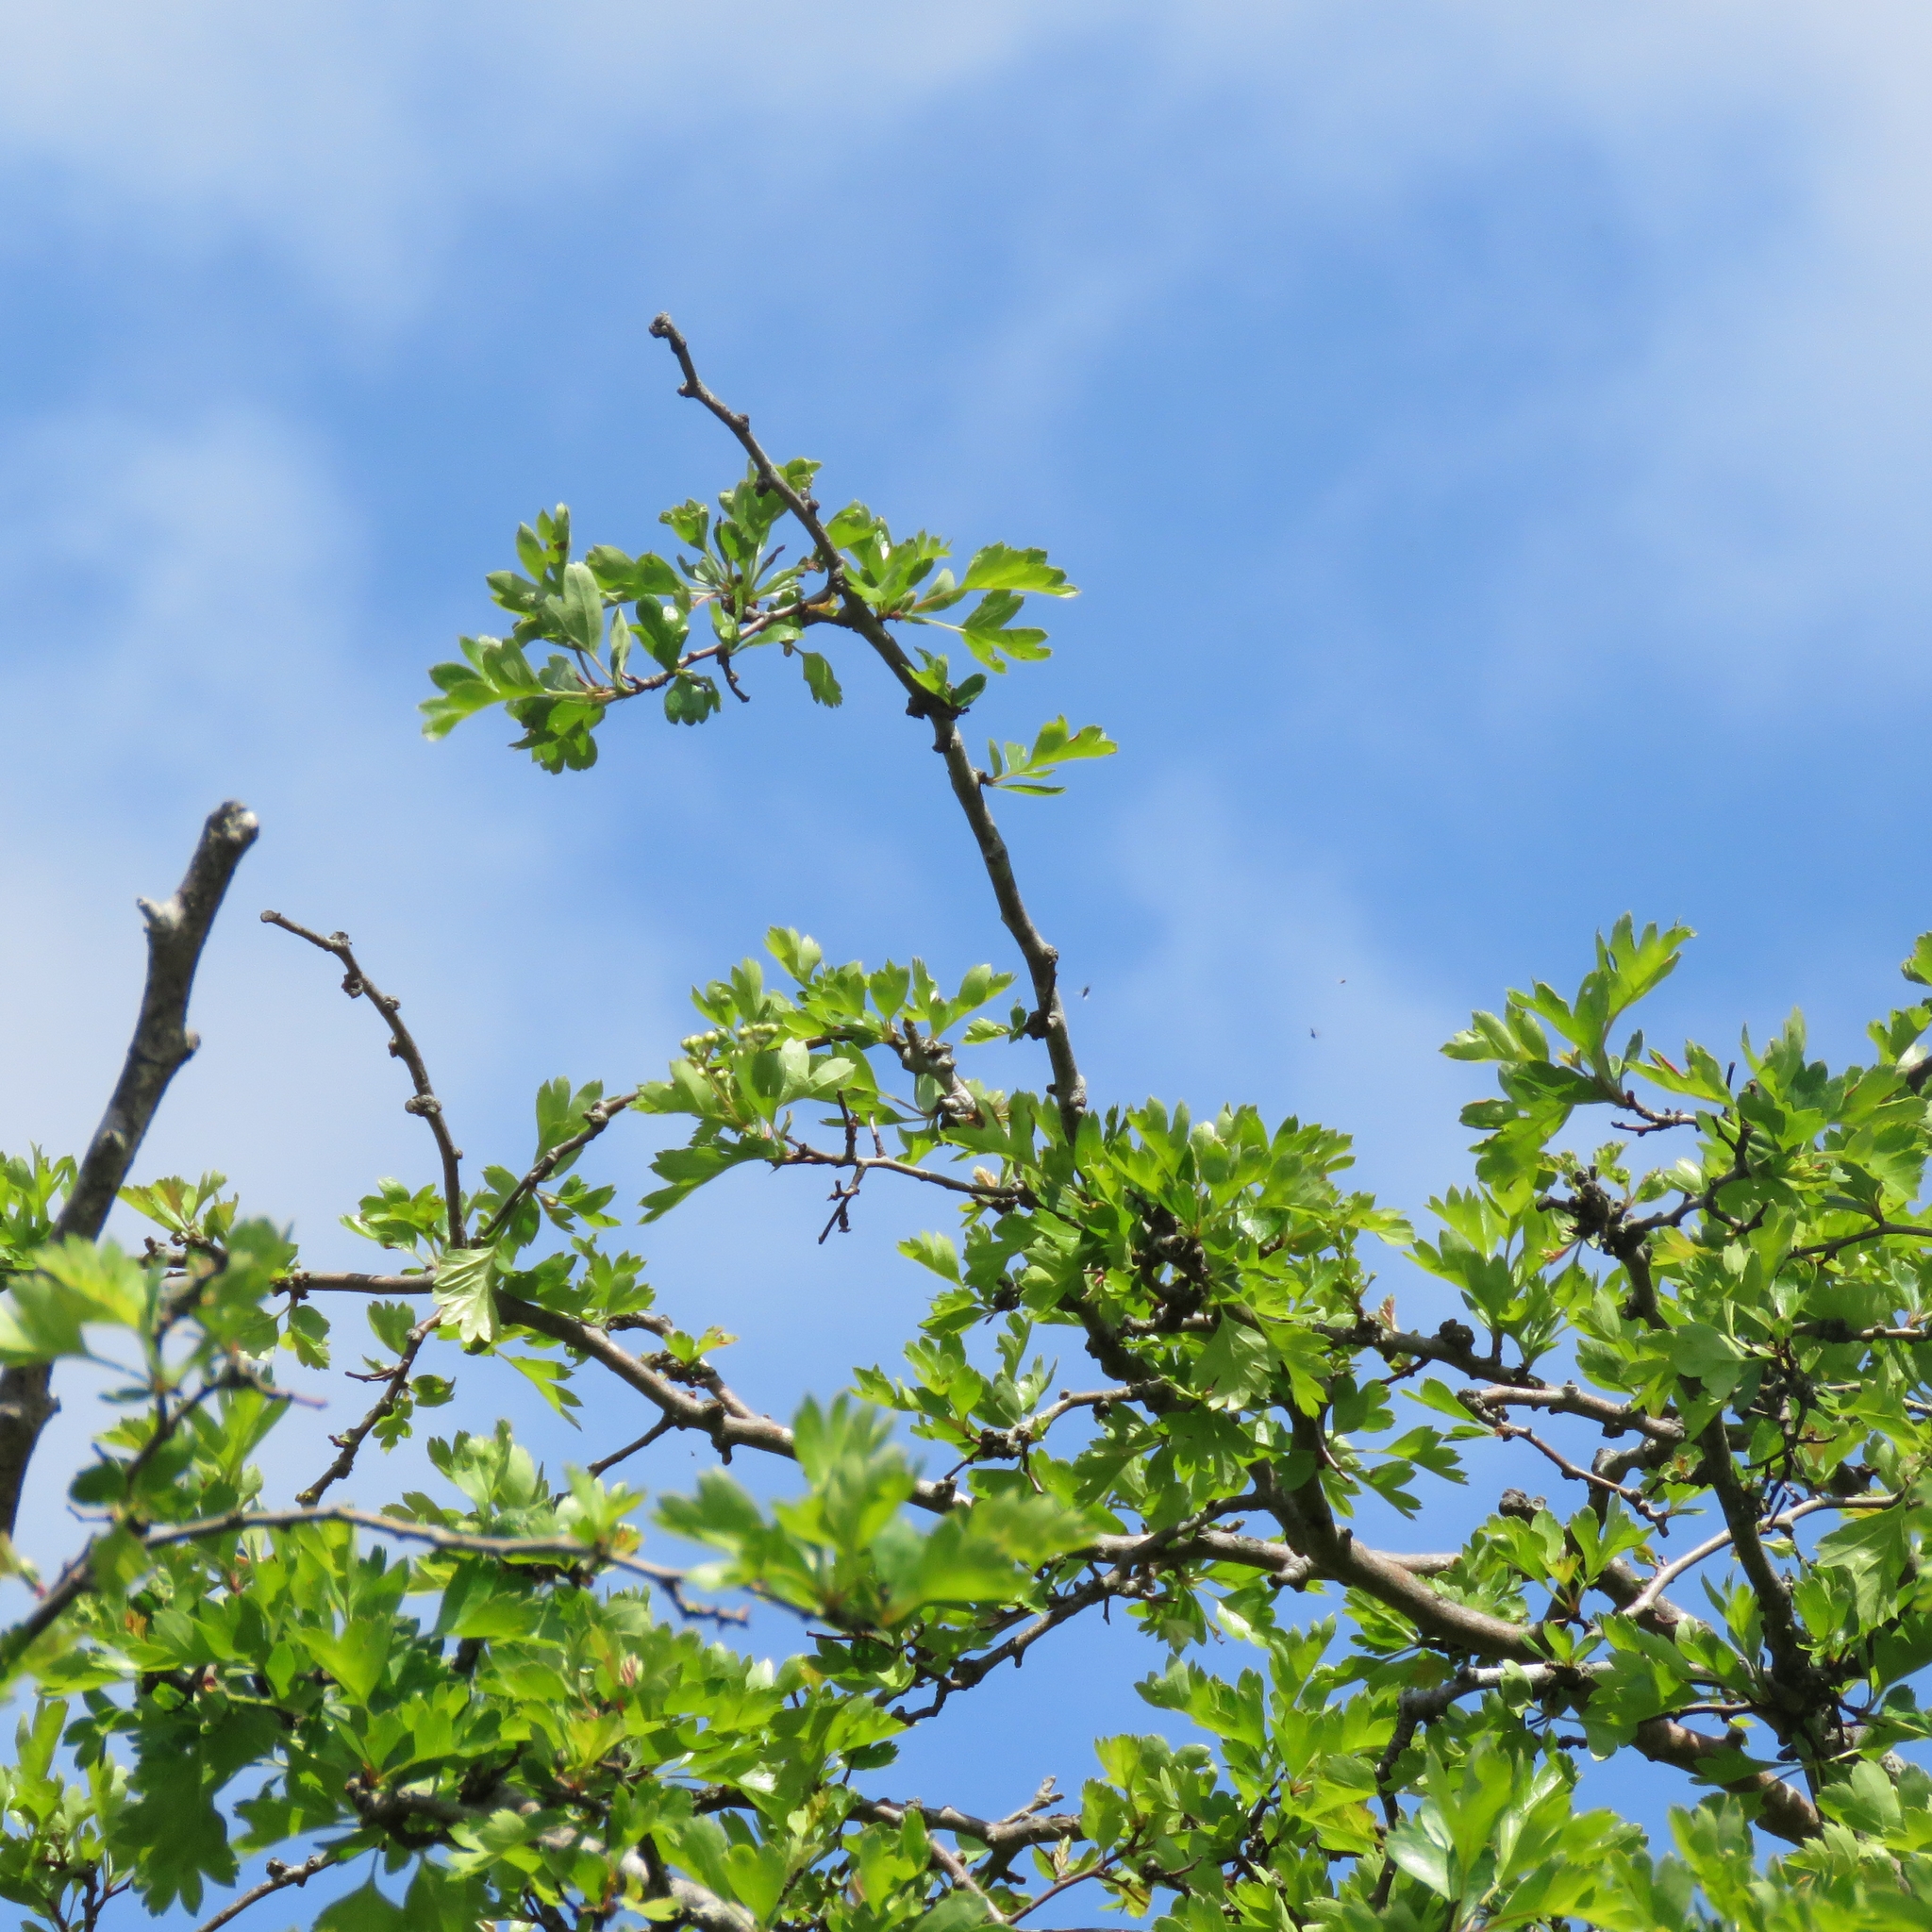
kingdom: Plantae
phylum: Tracheophyta
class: Magnoliopsida
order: Rosales
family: Rosaceae
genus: Crataegus
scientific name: Crataegus monogyna
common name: Hawthorn
